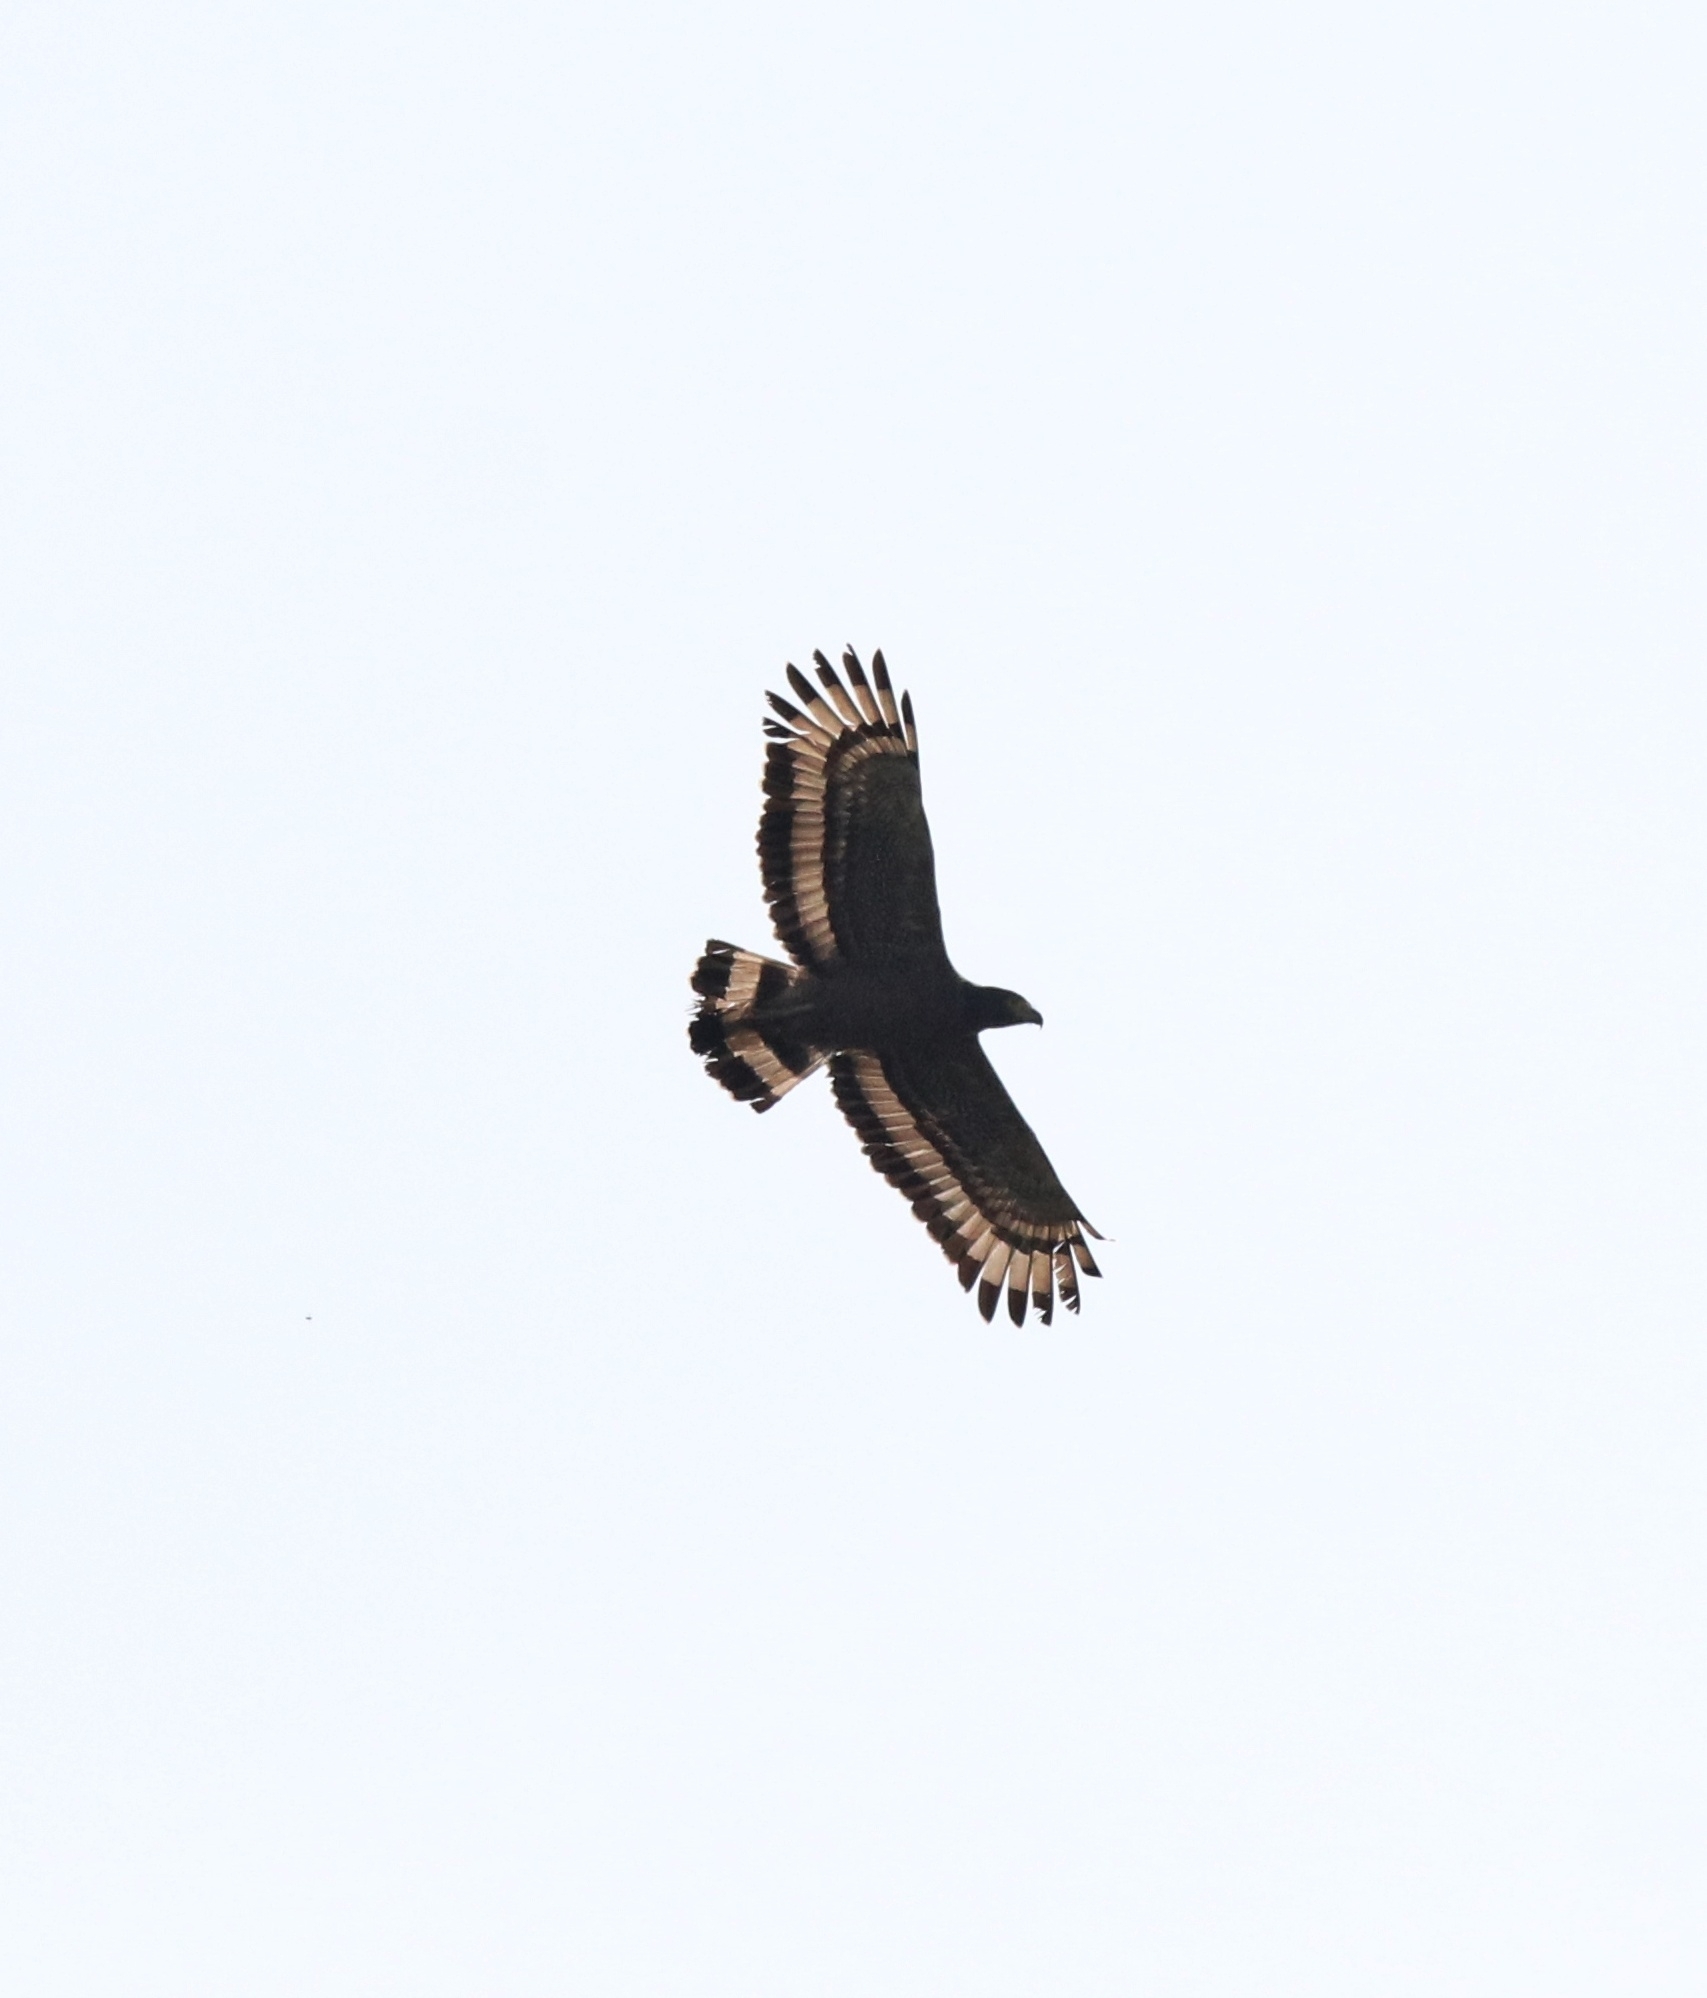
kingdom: Animalia
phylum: Chordata
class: Aves
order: Accipitriformes
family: Accipitridae
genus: Spilornis
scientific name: Spilornis cheela
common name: Crested serpent eagle
